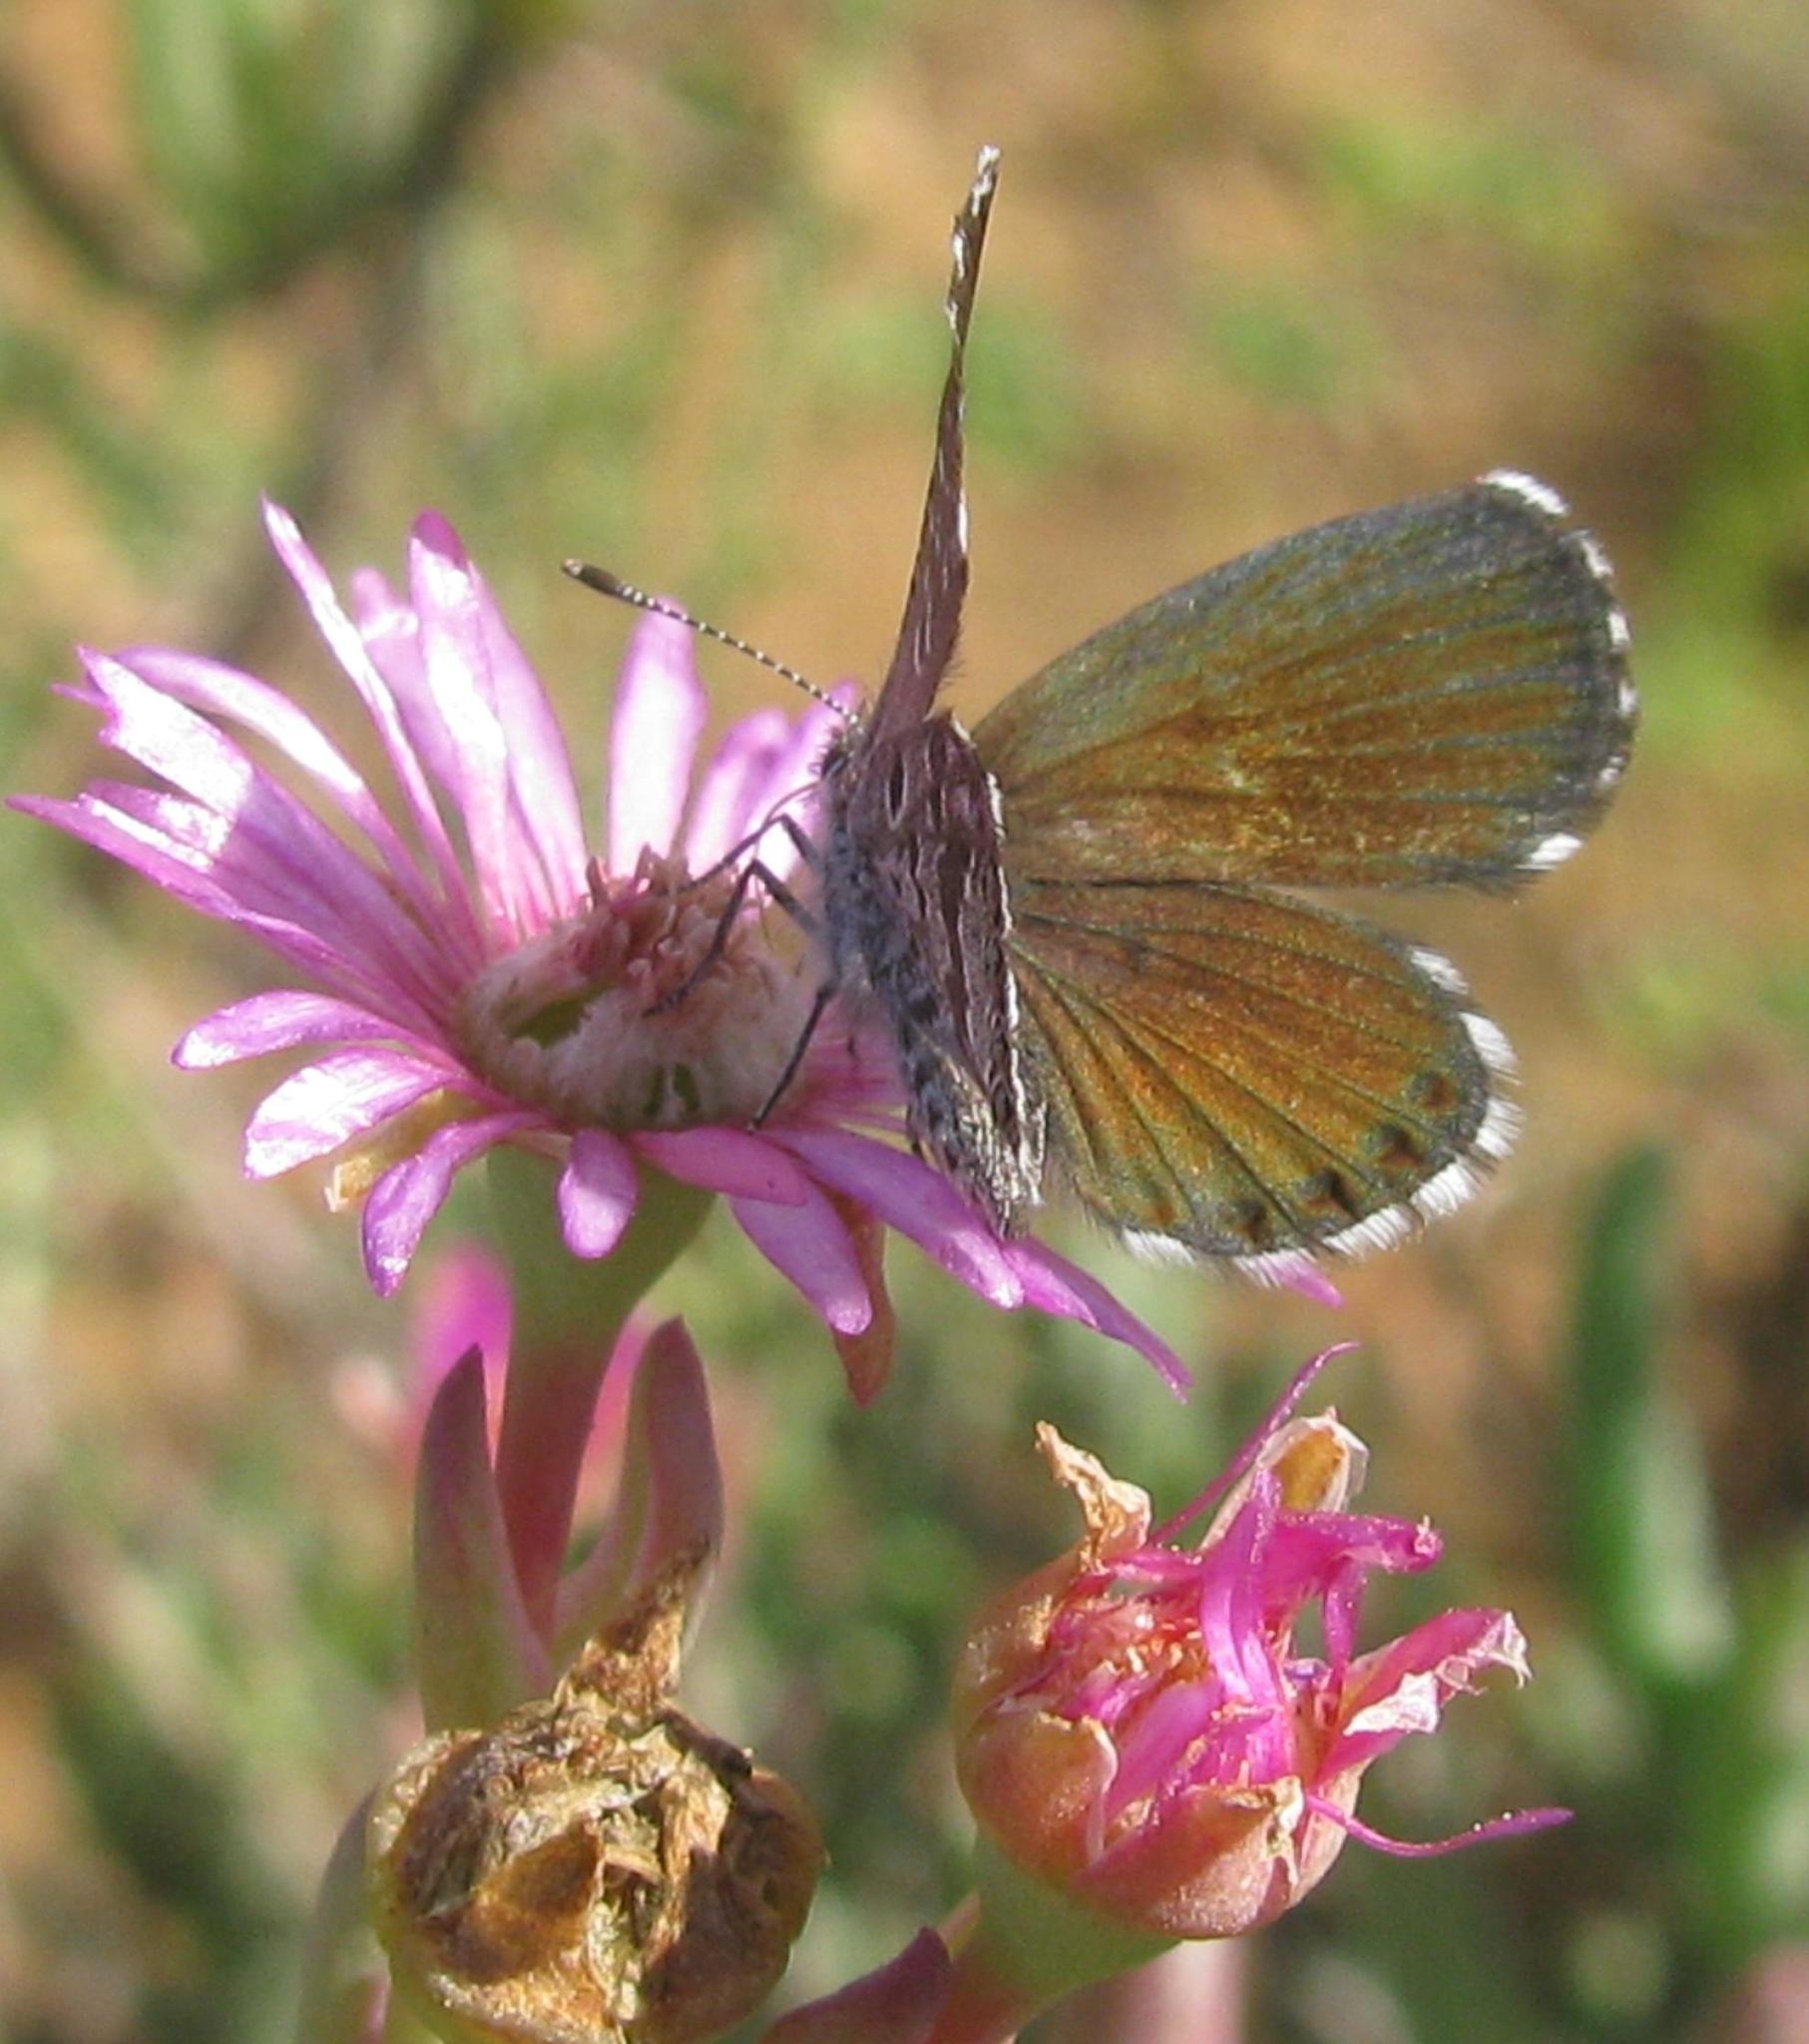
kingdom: Animalia
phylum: Arthropoda
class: Insecta
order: Lepidoptera
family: Lycaenidae
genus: Oraidium
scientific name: Oraidium barberae
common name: Dwarf blue
